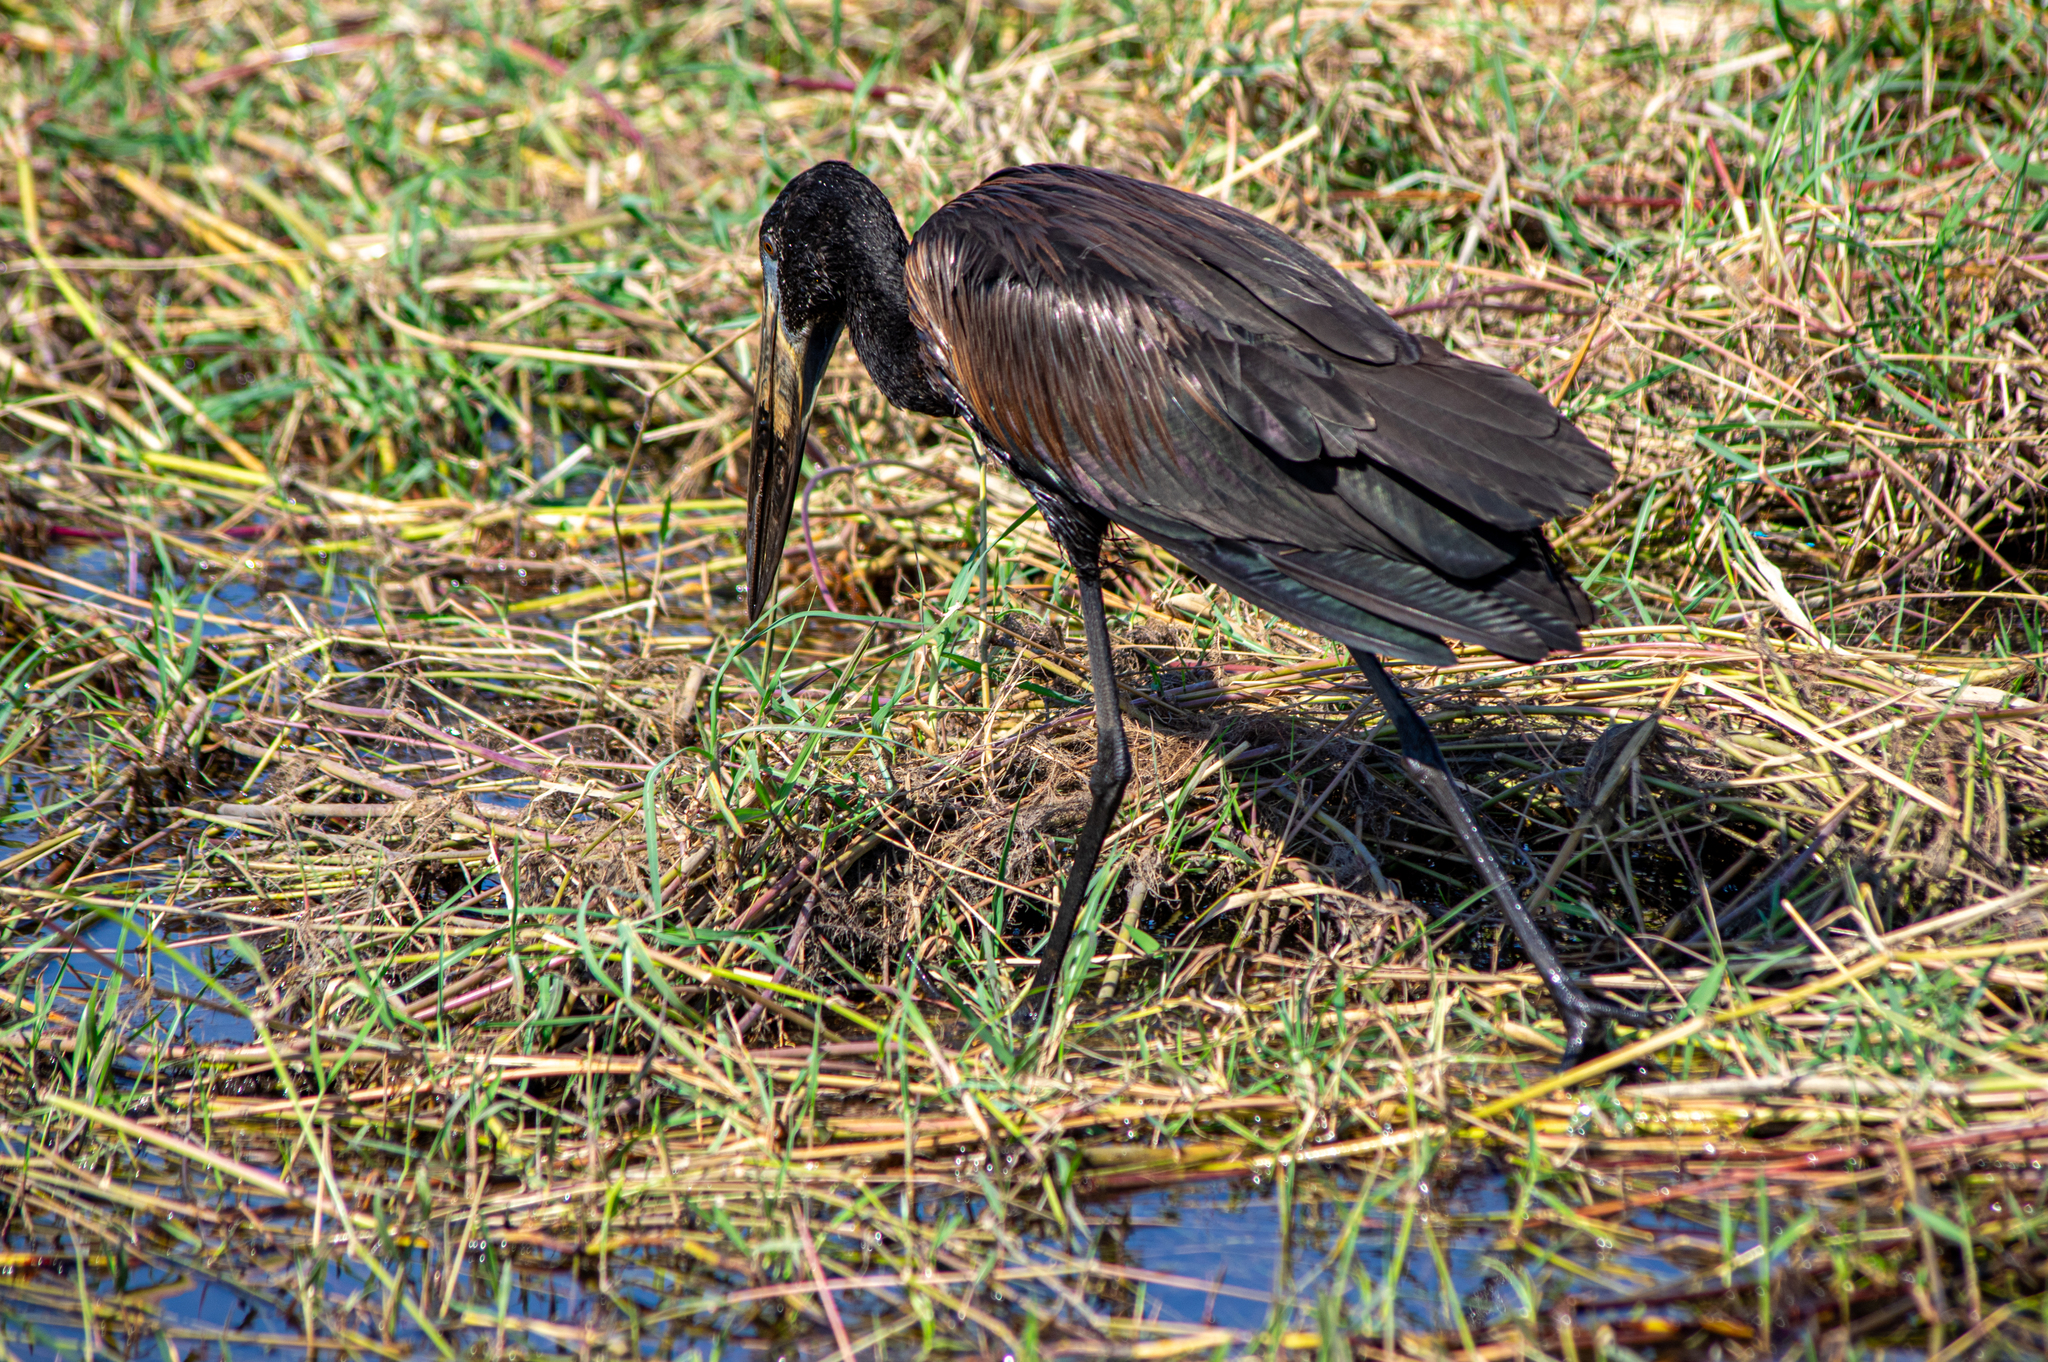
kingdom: Animalia
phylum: Chordata
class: Aves
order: Ciconiiformes
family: Ciconiidae
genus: Anastomus
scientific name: Anastomus lamelligerus
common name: African openbill
